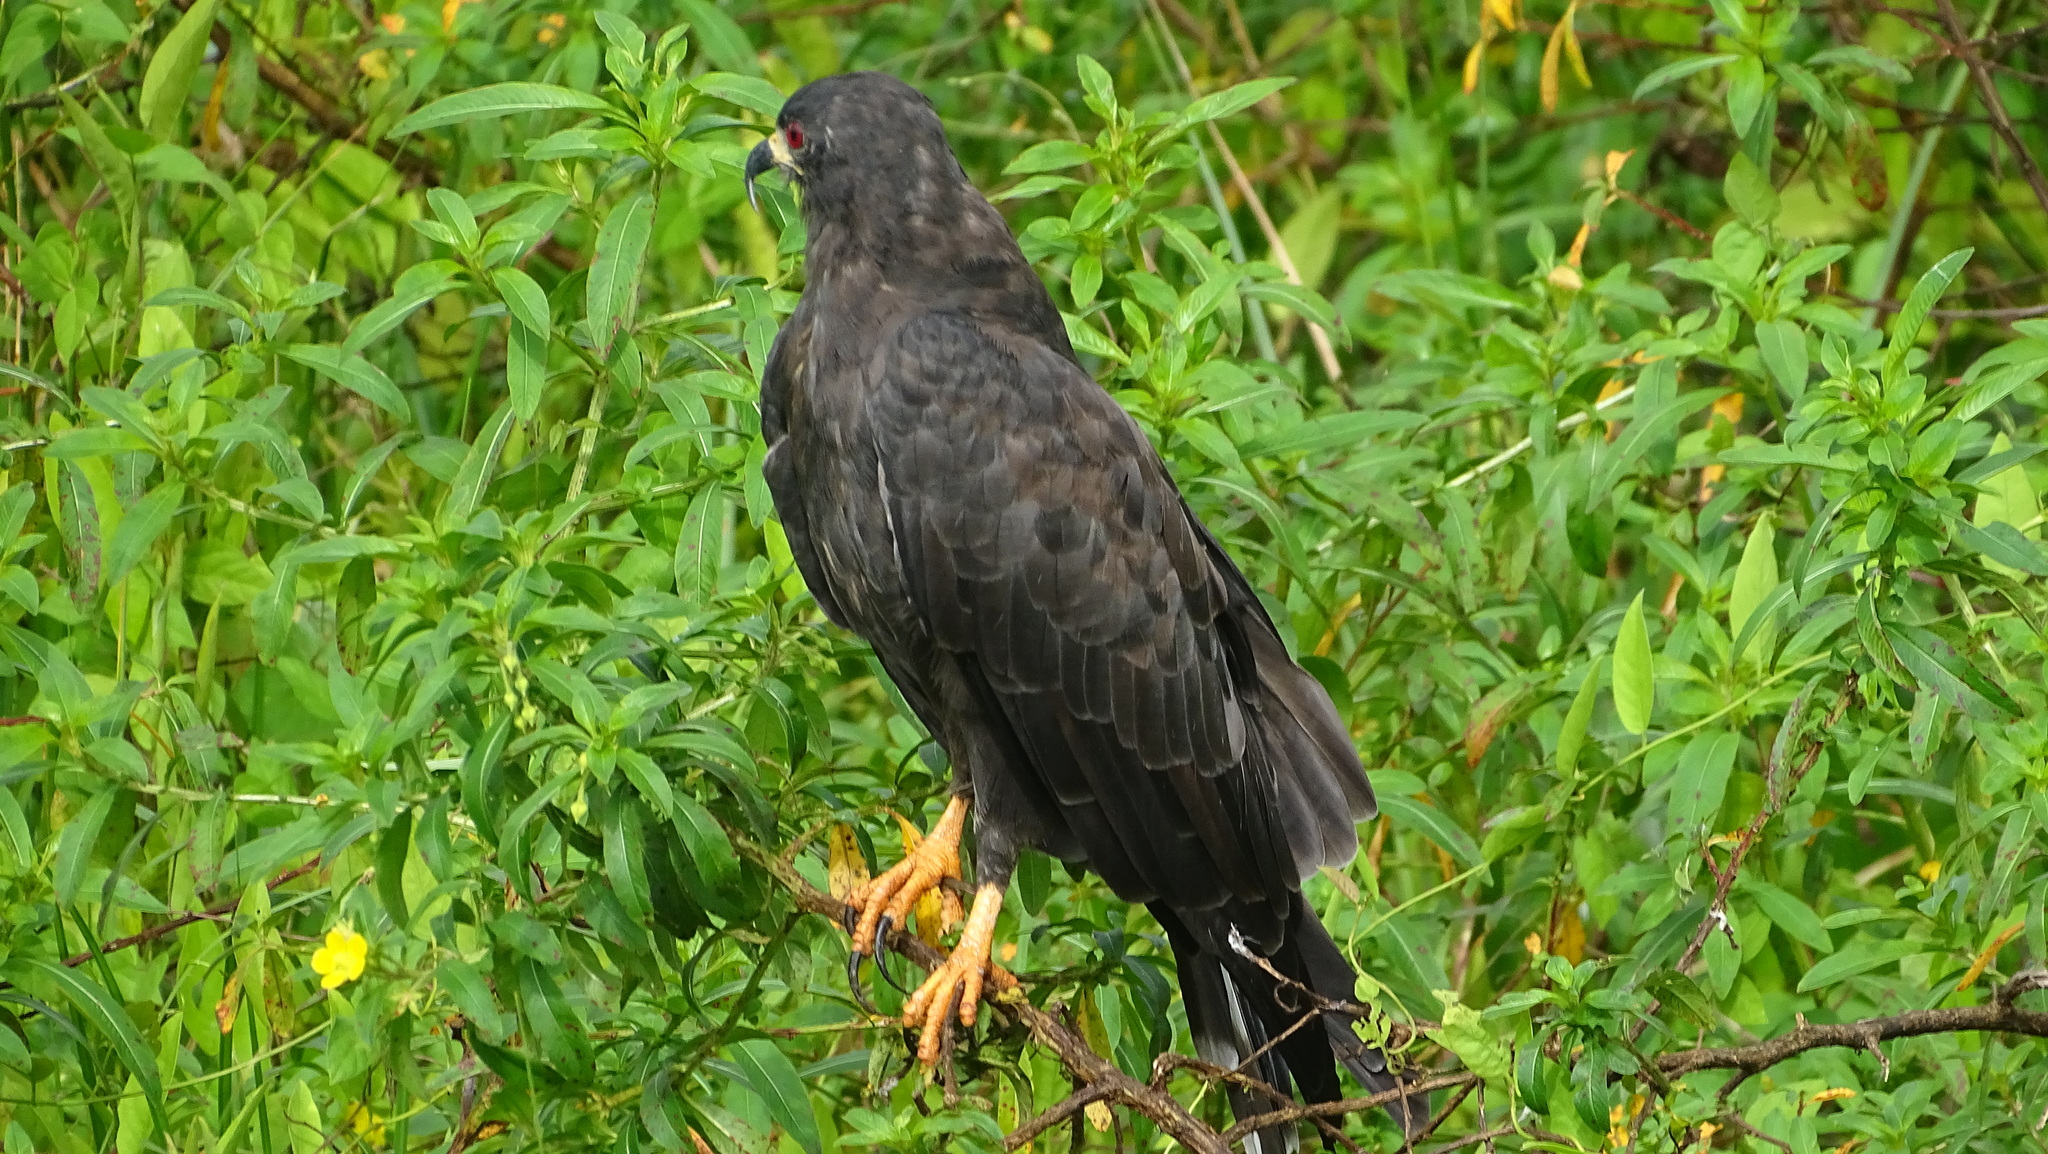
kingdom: Animalia
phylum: Chordata
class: Aves
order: Accipitriformes
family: Accipitridae
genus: Rostrhamus
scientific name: Rostrhamus sociabilis
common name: Snail kite
